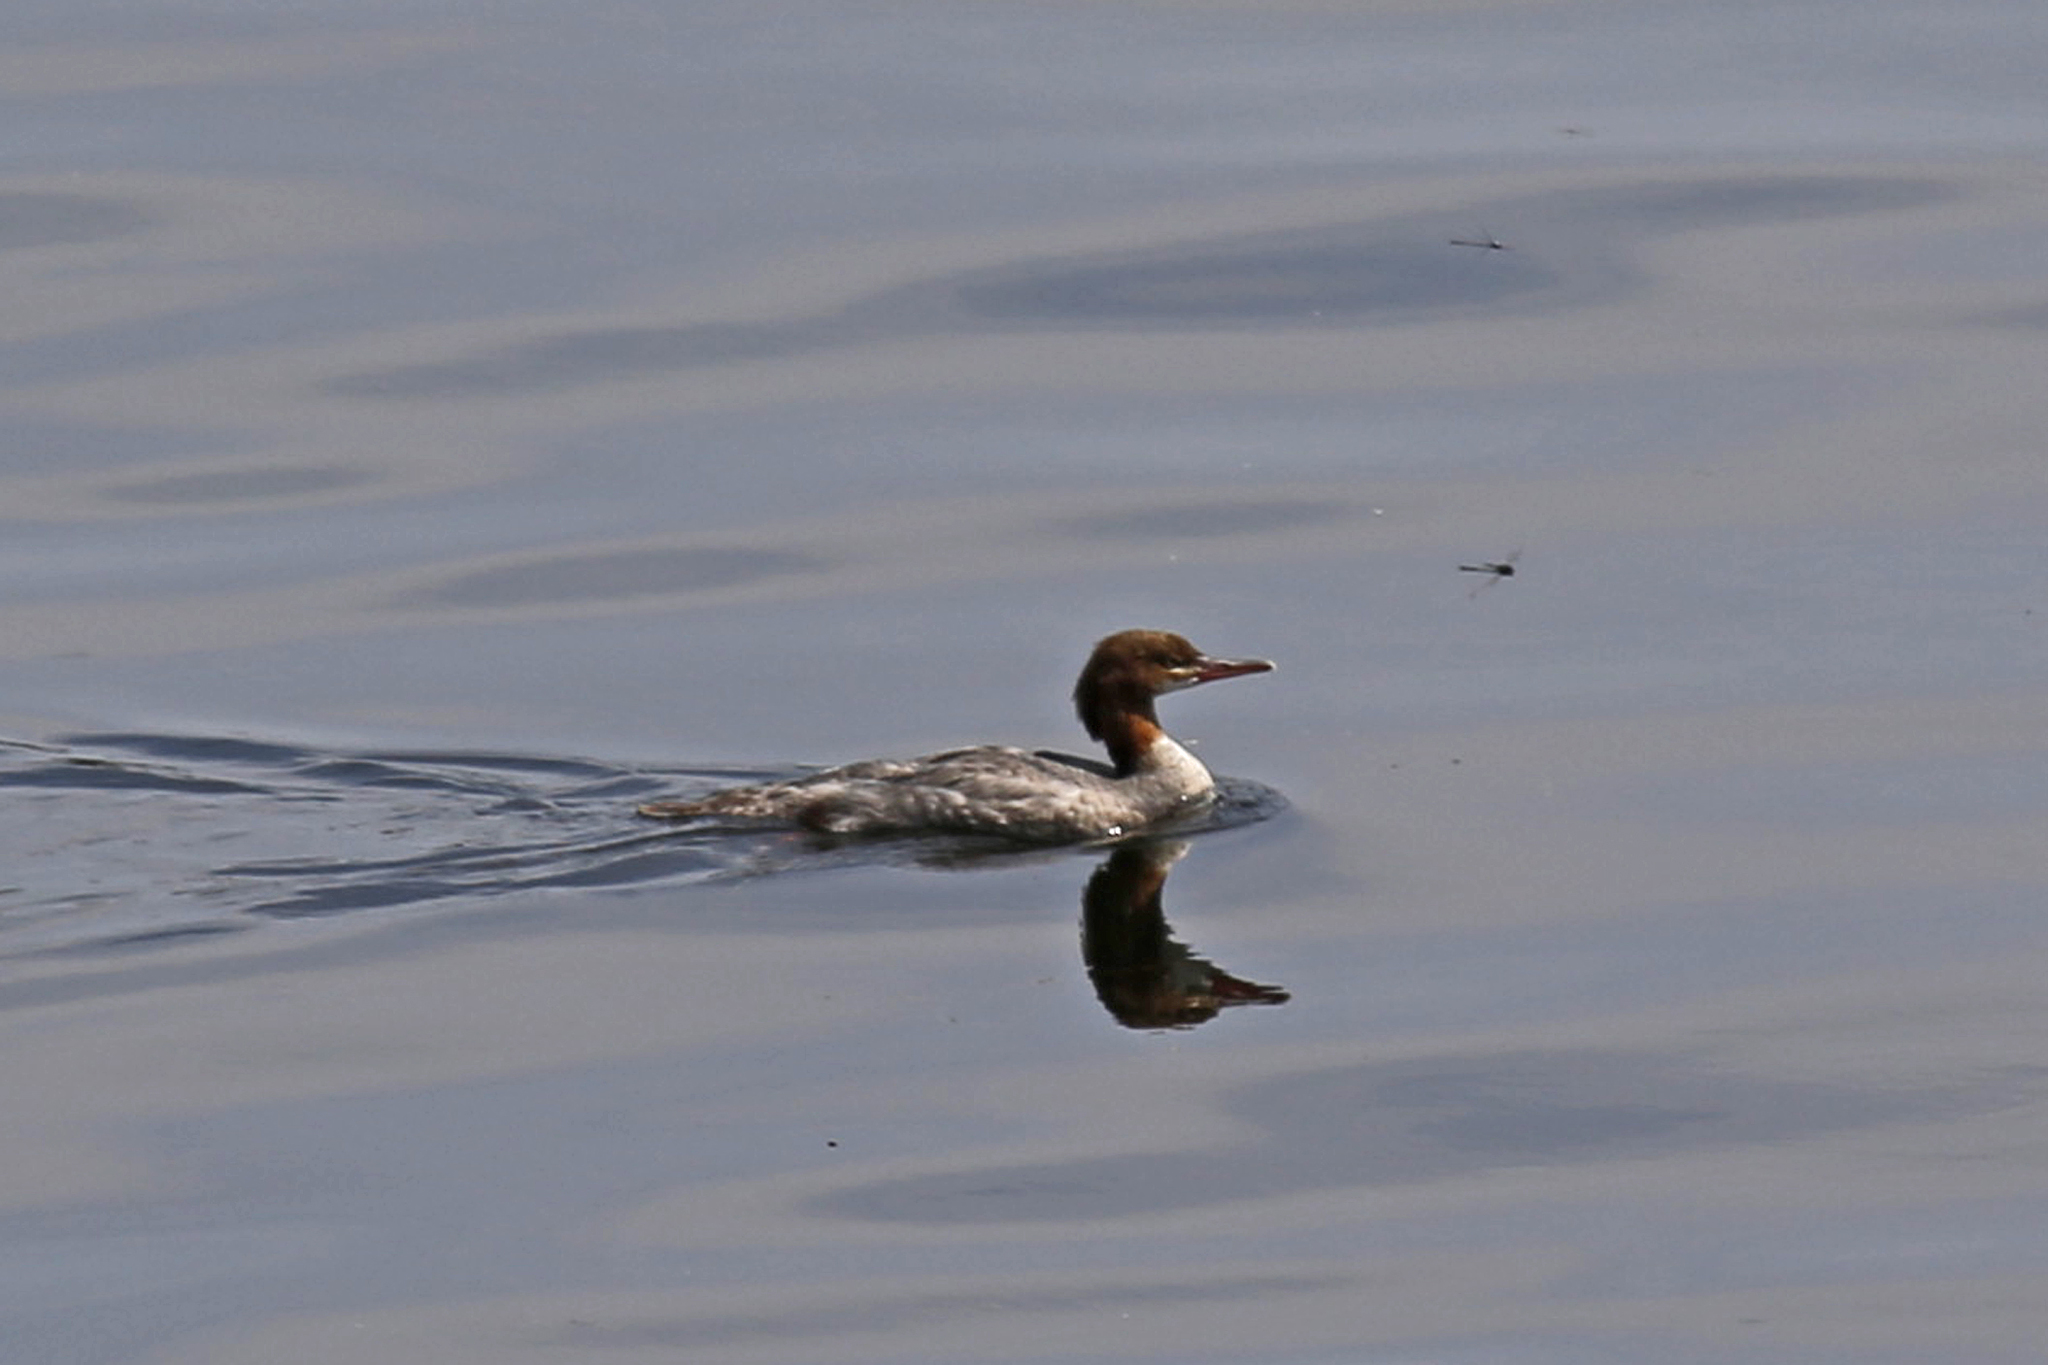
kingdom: Animalia
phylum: Chordata
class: Aves
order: Anseriformes
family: Anatidae
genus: Mergus
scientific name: Mergus merganser
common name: Common merganser
